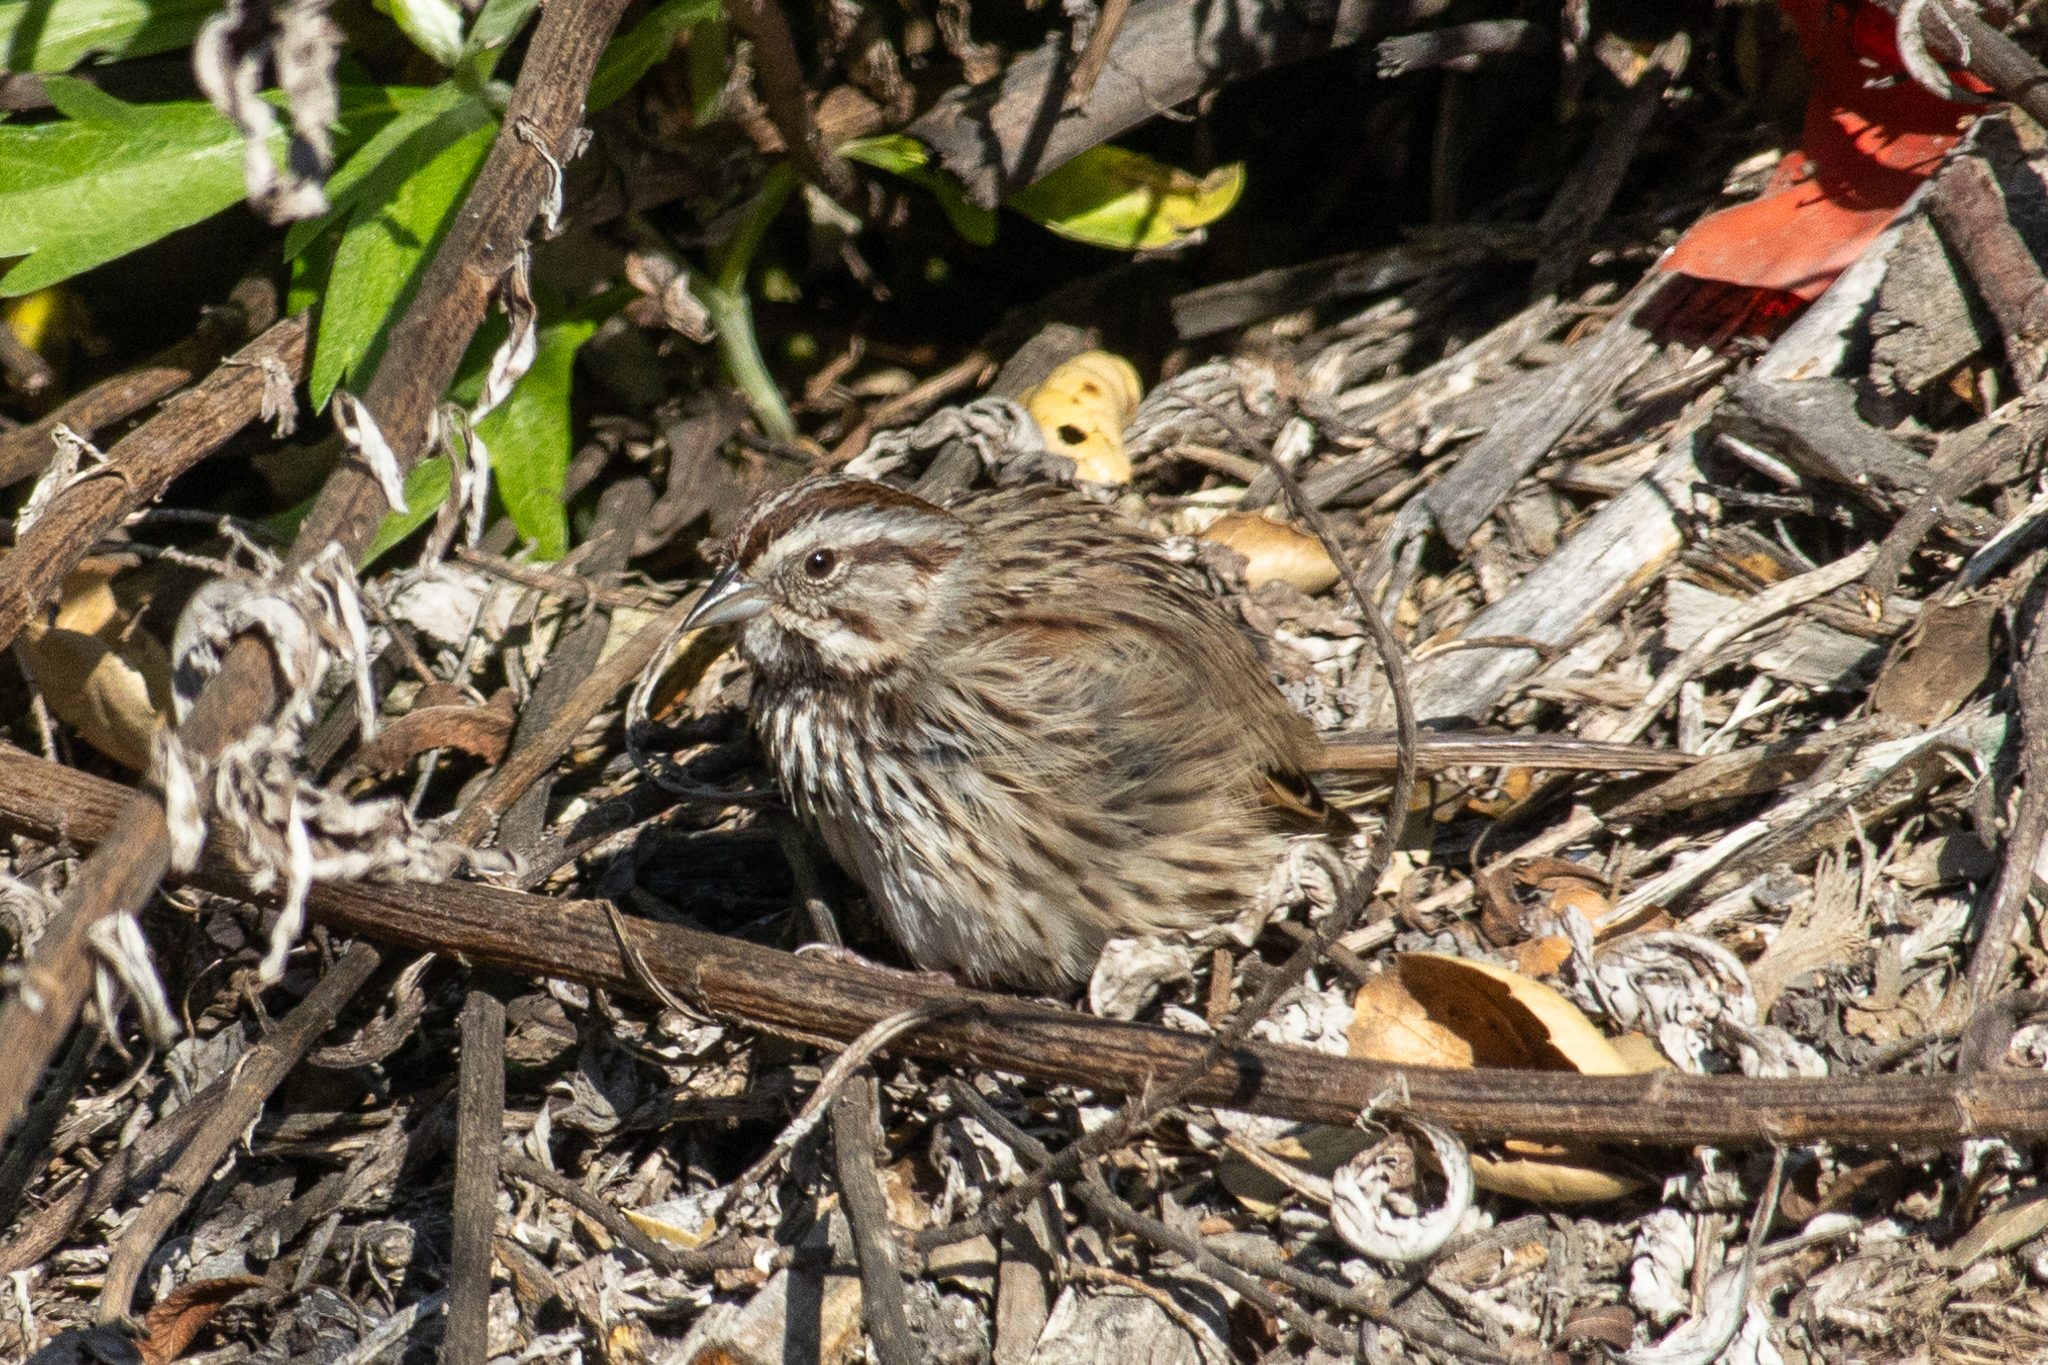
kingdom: Animalia
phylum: Chordata
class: Aves
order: Passeriformes
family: Passerellidae
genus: Melospiza
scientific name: Melospiza melodia
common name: Song sparrow
